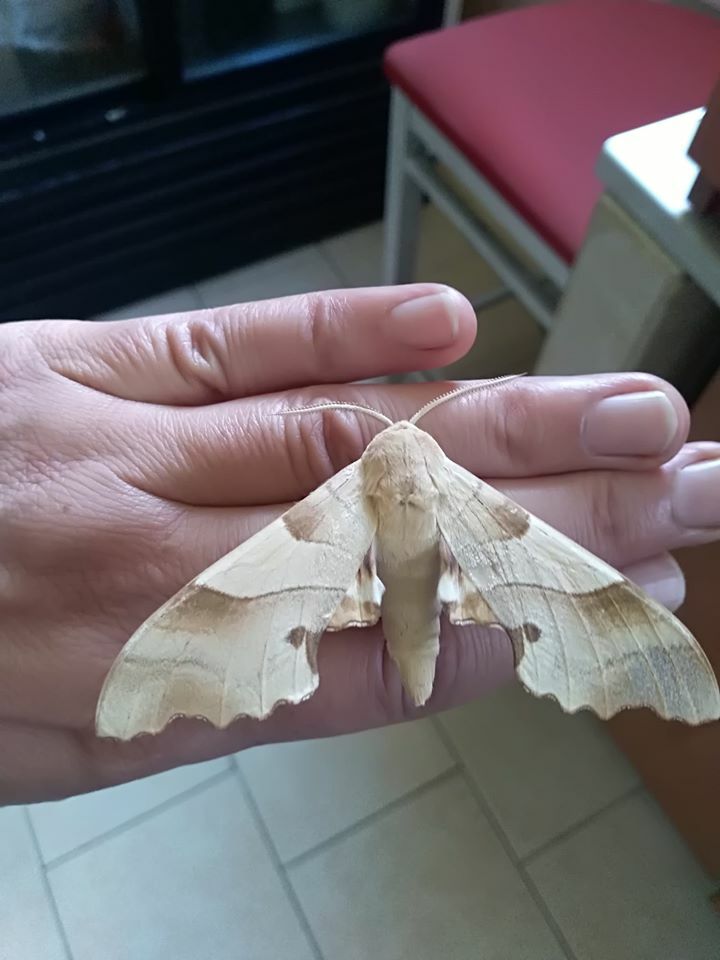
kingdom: Animalia
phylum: Arthropoda
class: Insecta
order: Lepidoptera
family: Sphingidae
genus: Marumba
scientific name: Marumba quercus
